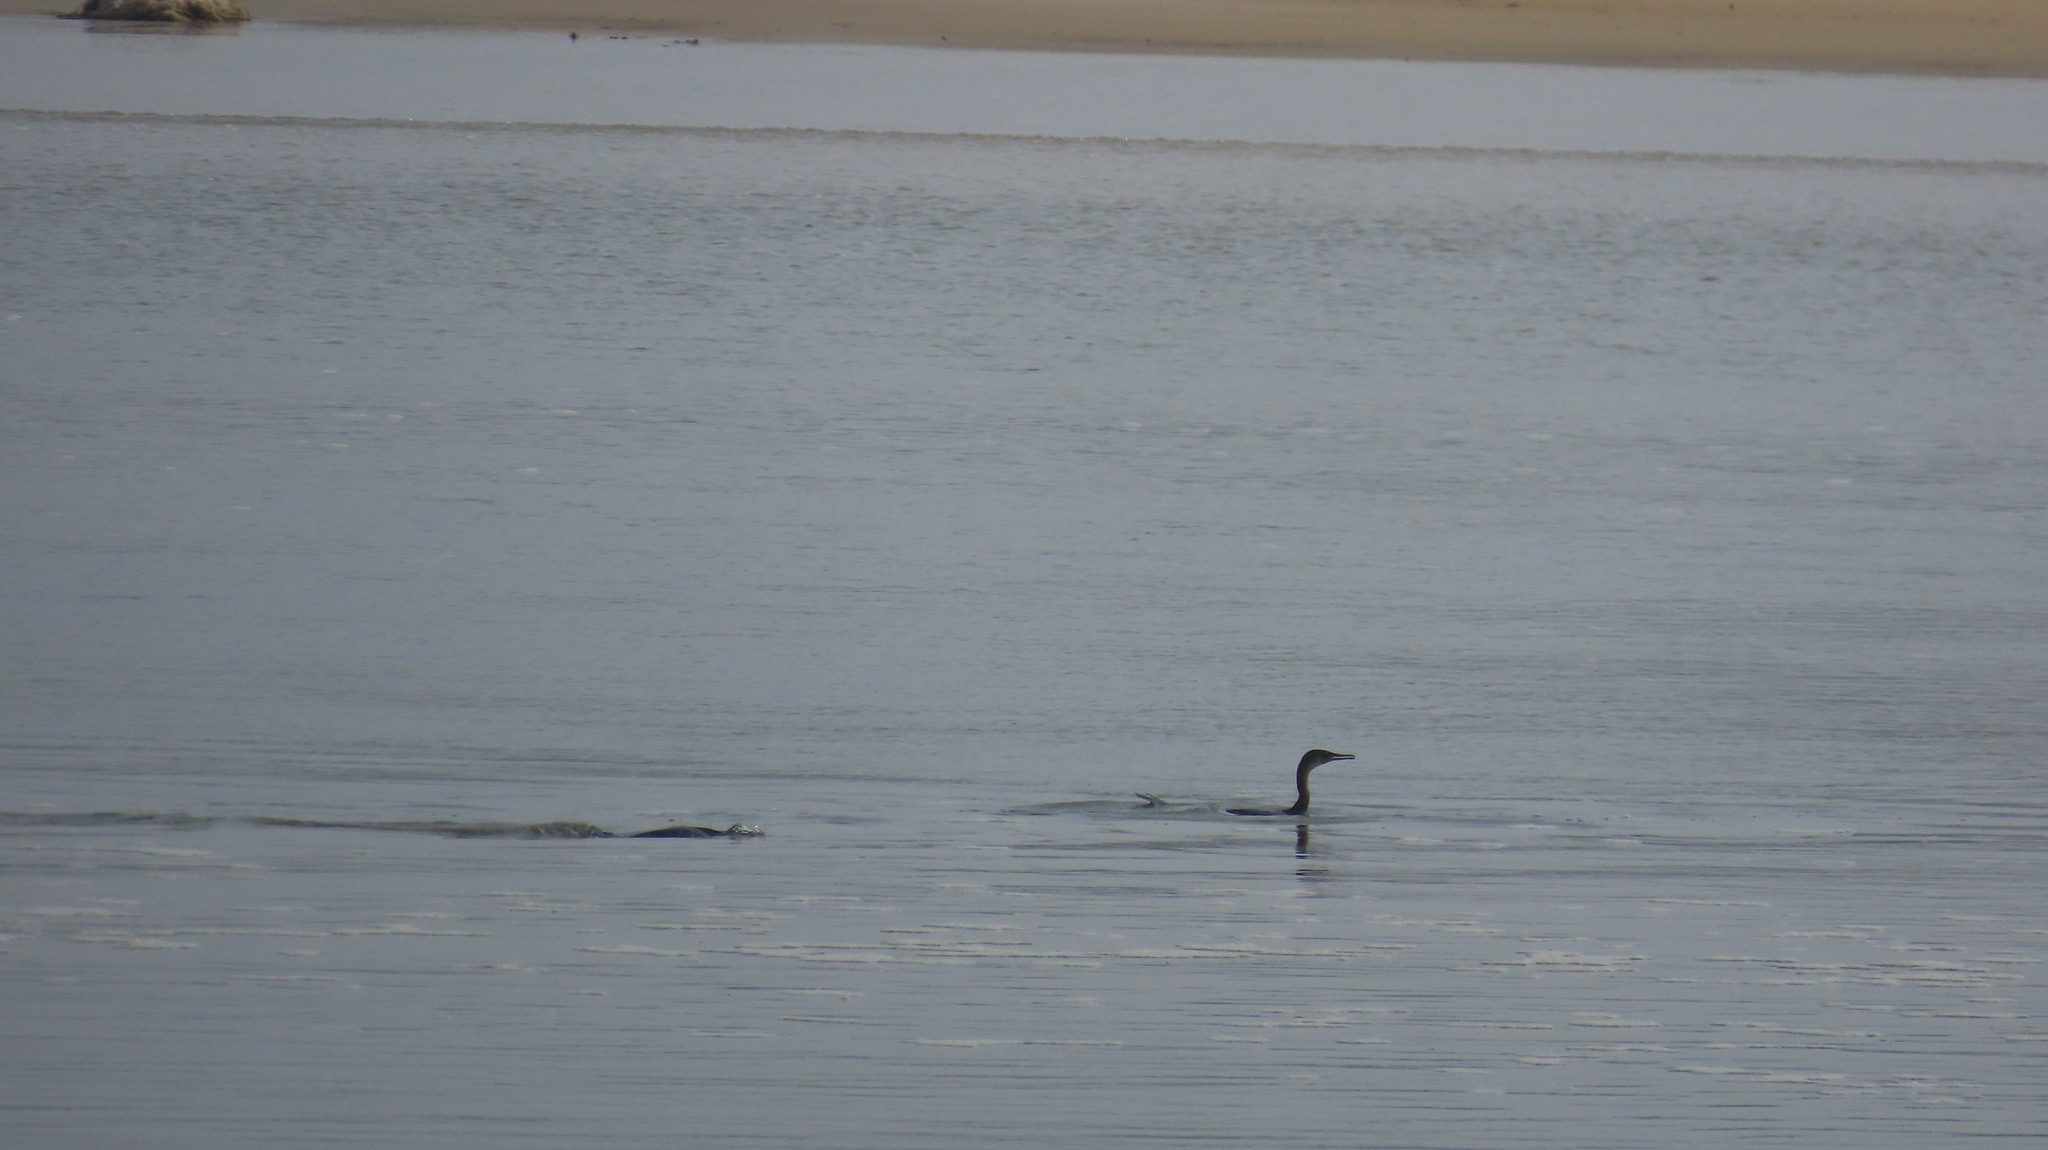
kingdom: Animalia
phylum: Chordata
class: Aves
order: Suliformes
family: Phalacrocoracidae
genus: Phalacrocorax
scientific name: Phalacrocorax fuscicollis
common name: Indian cormorant
